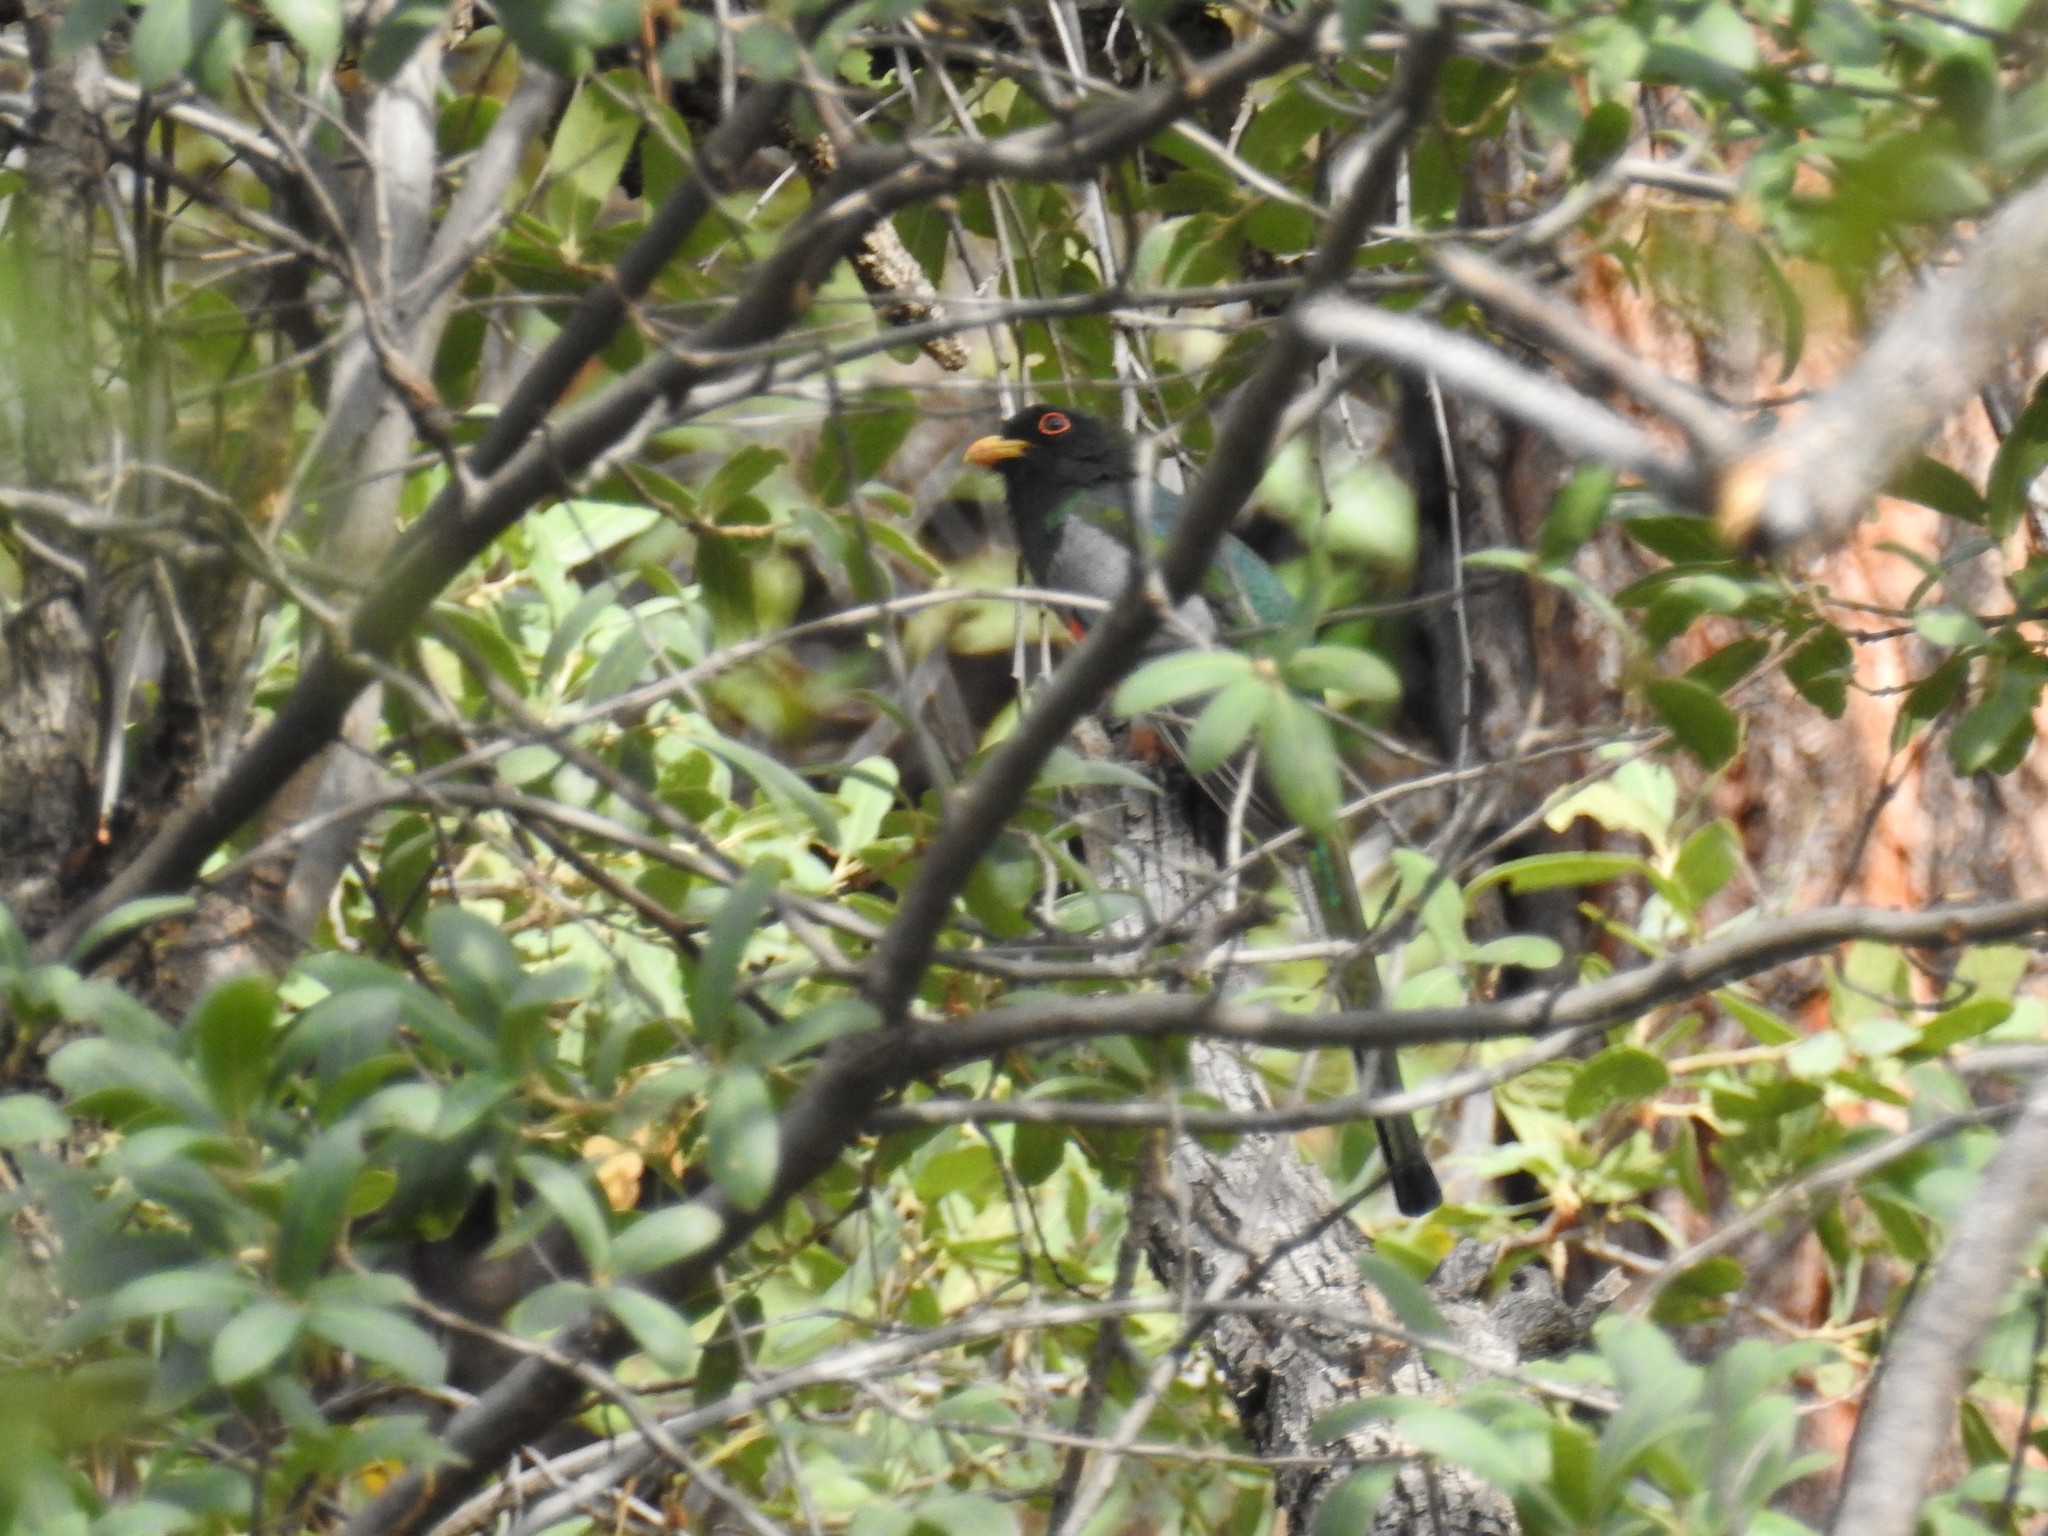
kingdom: Animalia
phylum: Chordata
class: Aves
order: Trogoniformes
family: Trogonidae
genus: Trogon
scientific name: Trogon elegans
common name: Elegant trogon
